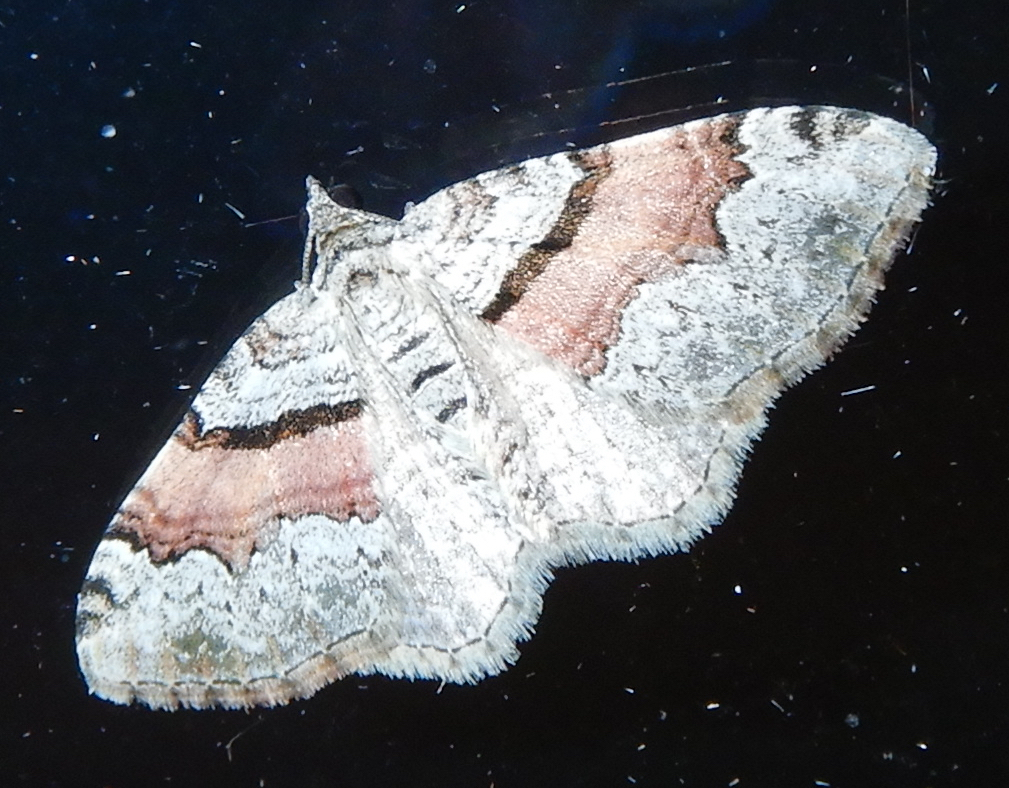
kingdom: Animalia
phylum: Arthropoda
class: Insecta
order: Lepidoptera
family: Geometridae
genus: Xanthorhoe
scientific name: Xanthorhoe packardata
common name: Packard's carpet
